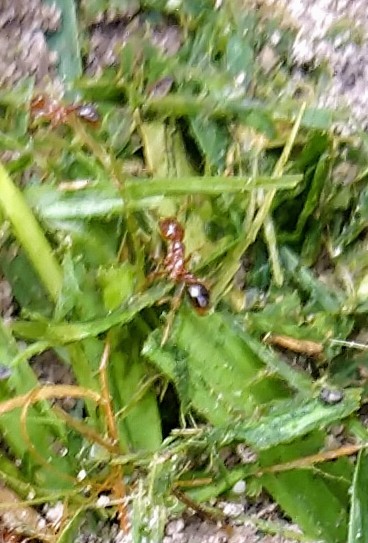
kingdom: Animalia
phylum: Arthropoda
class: Insecta
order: Hymenoptera
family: Formicidae
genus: Solenopsis
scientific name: Solenopsis invicta
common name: Red imported fire ant
